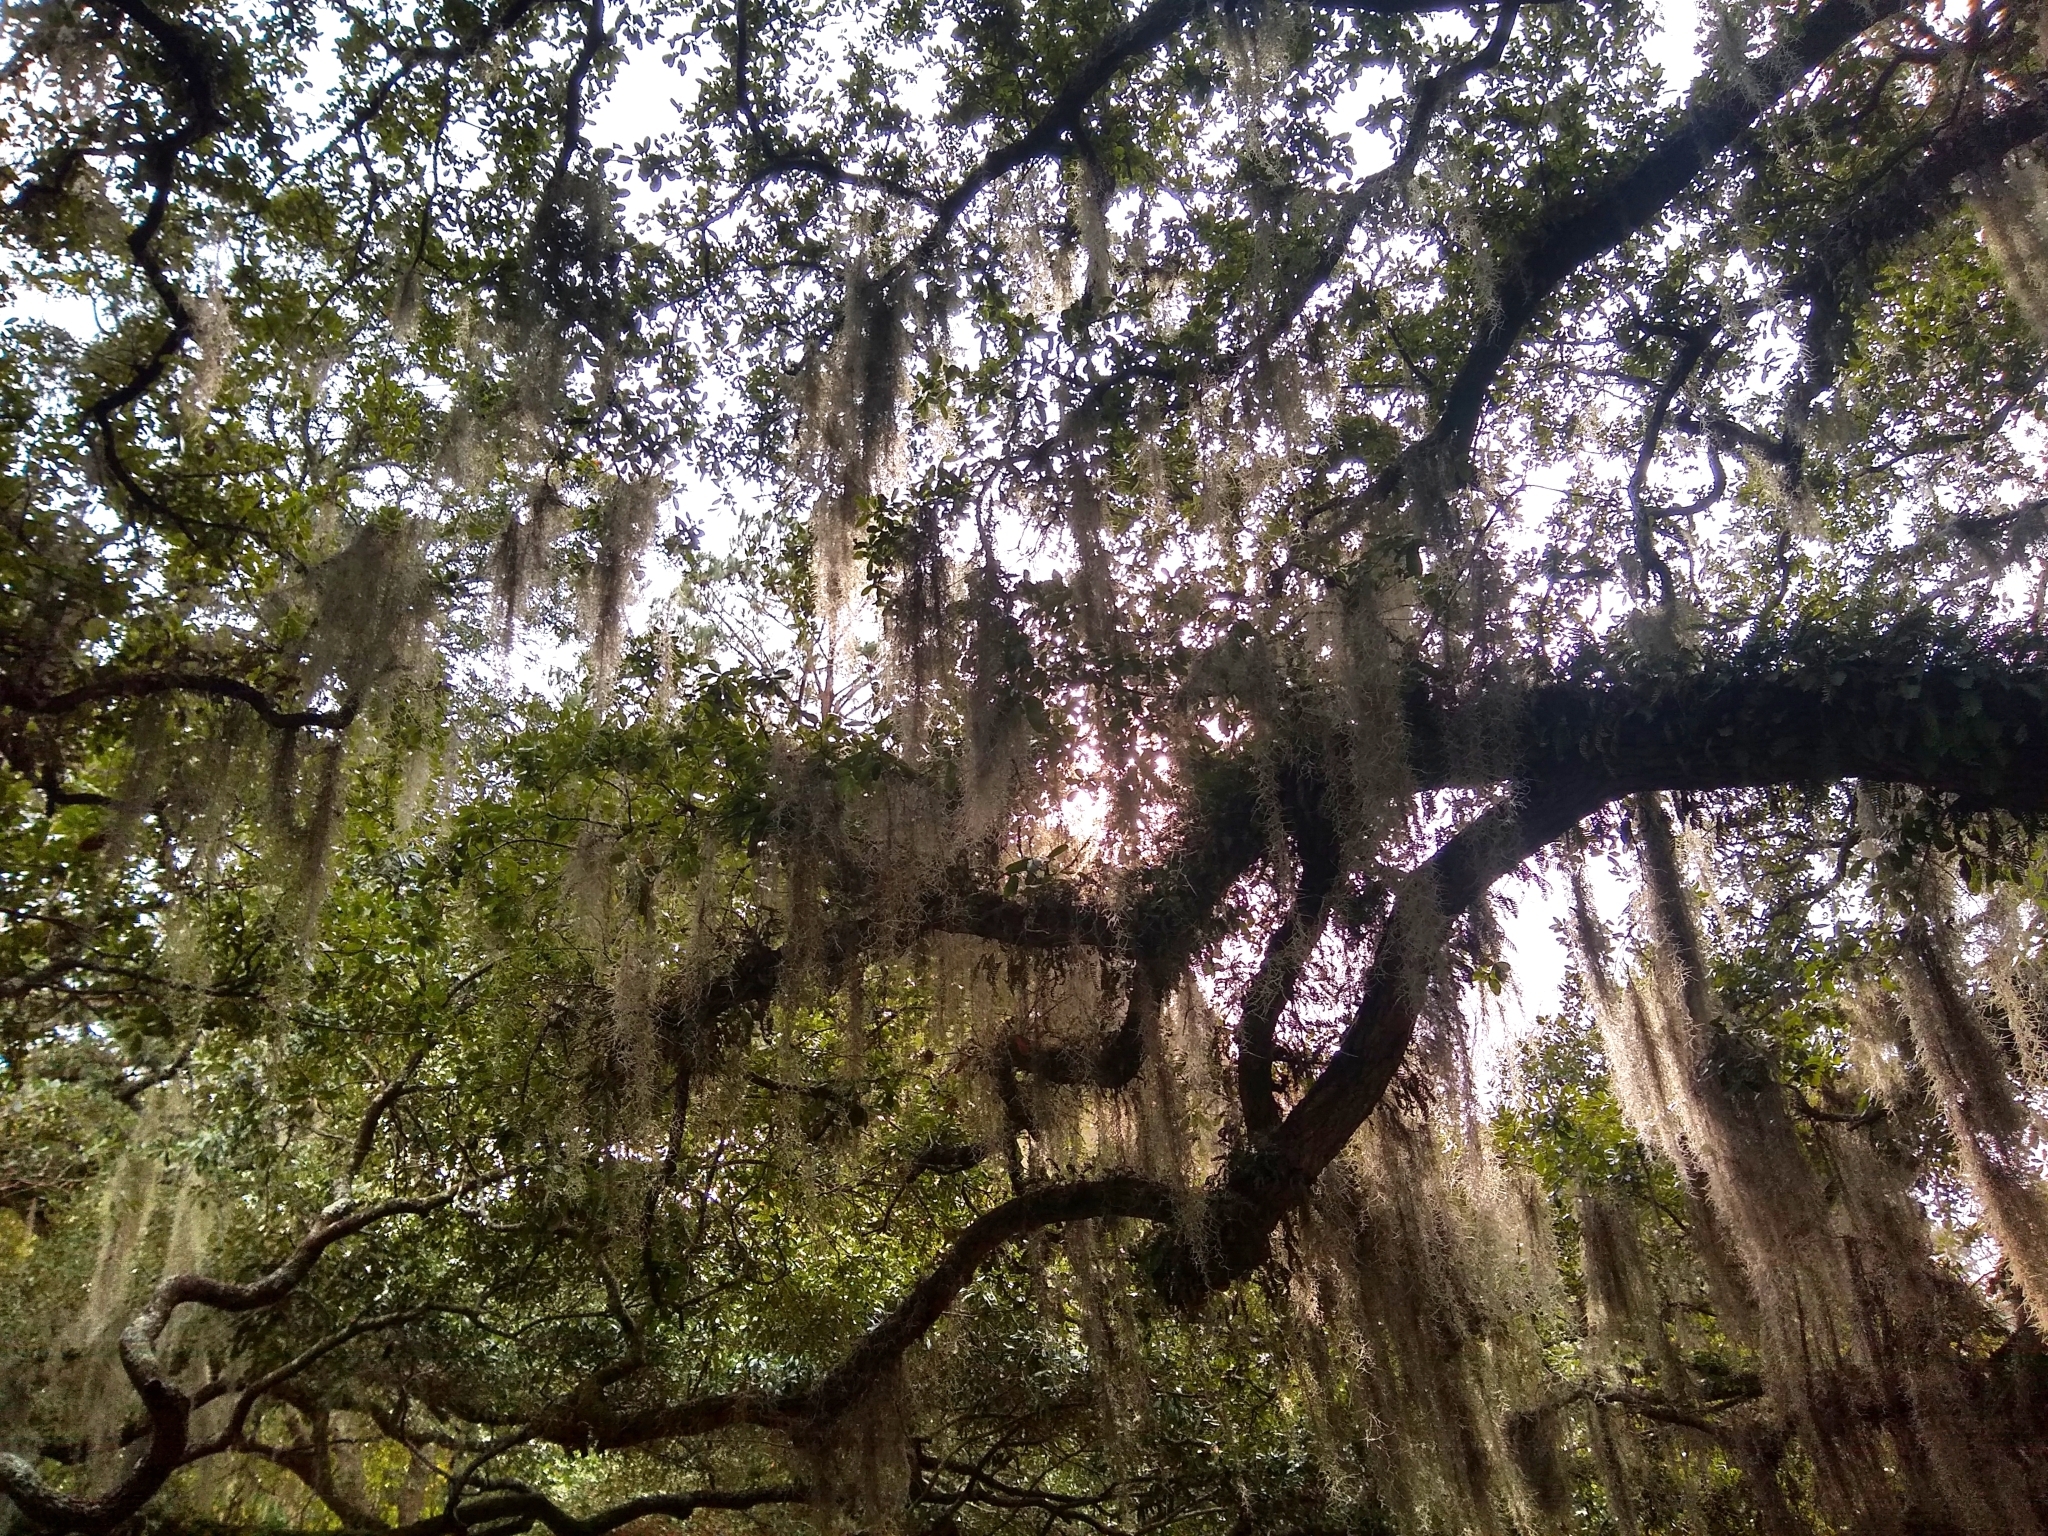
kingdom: Plantae
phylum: Tracheophyta
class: Liliopsida
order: Poales
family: Bromeliaceae
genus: Tillandsia
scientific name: Tillandsia usneoides
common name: Spanish moss
